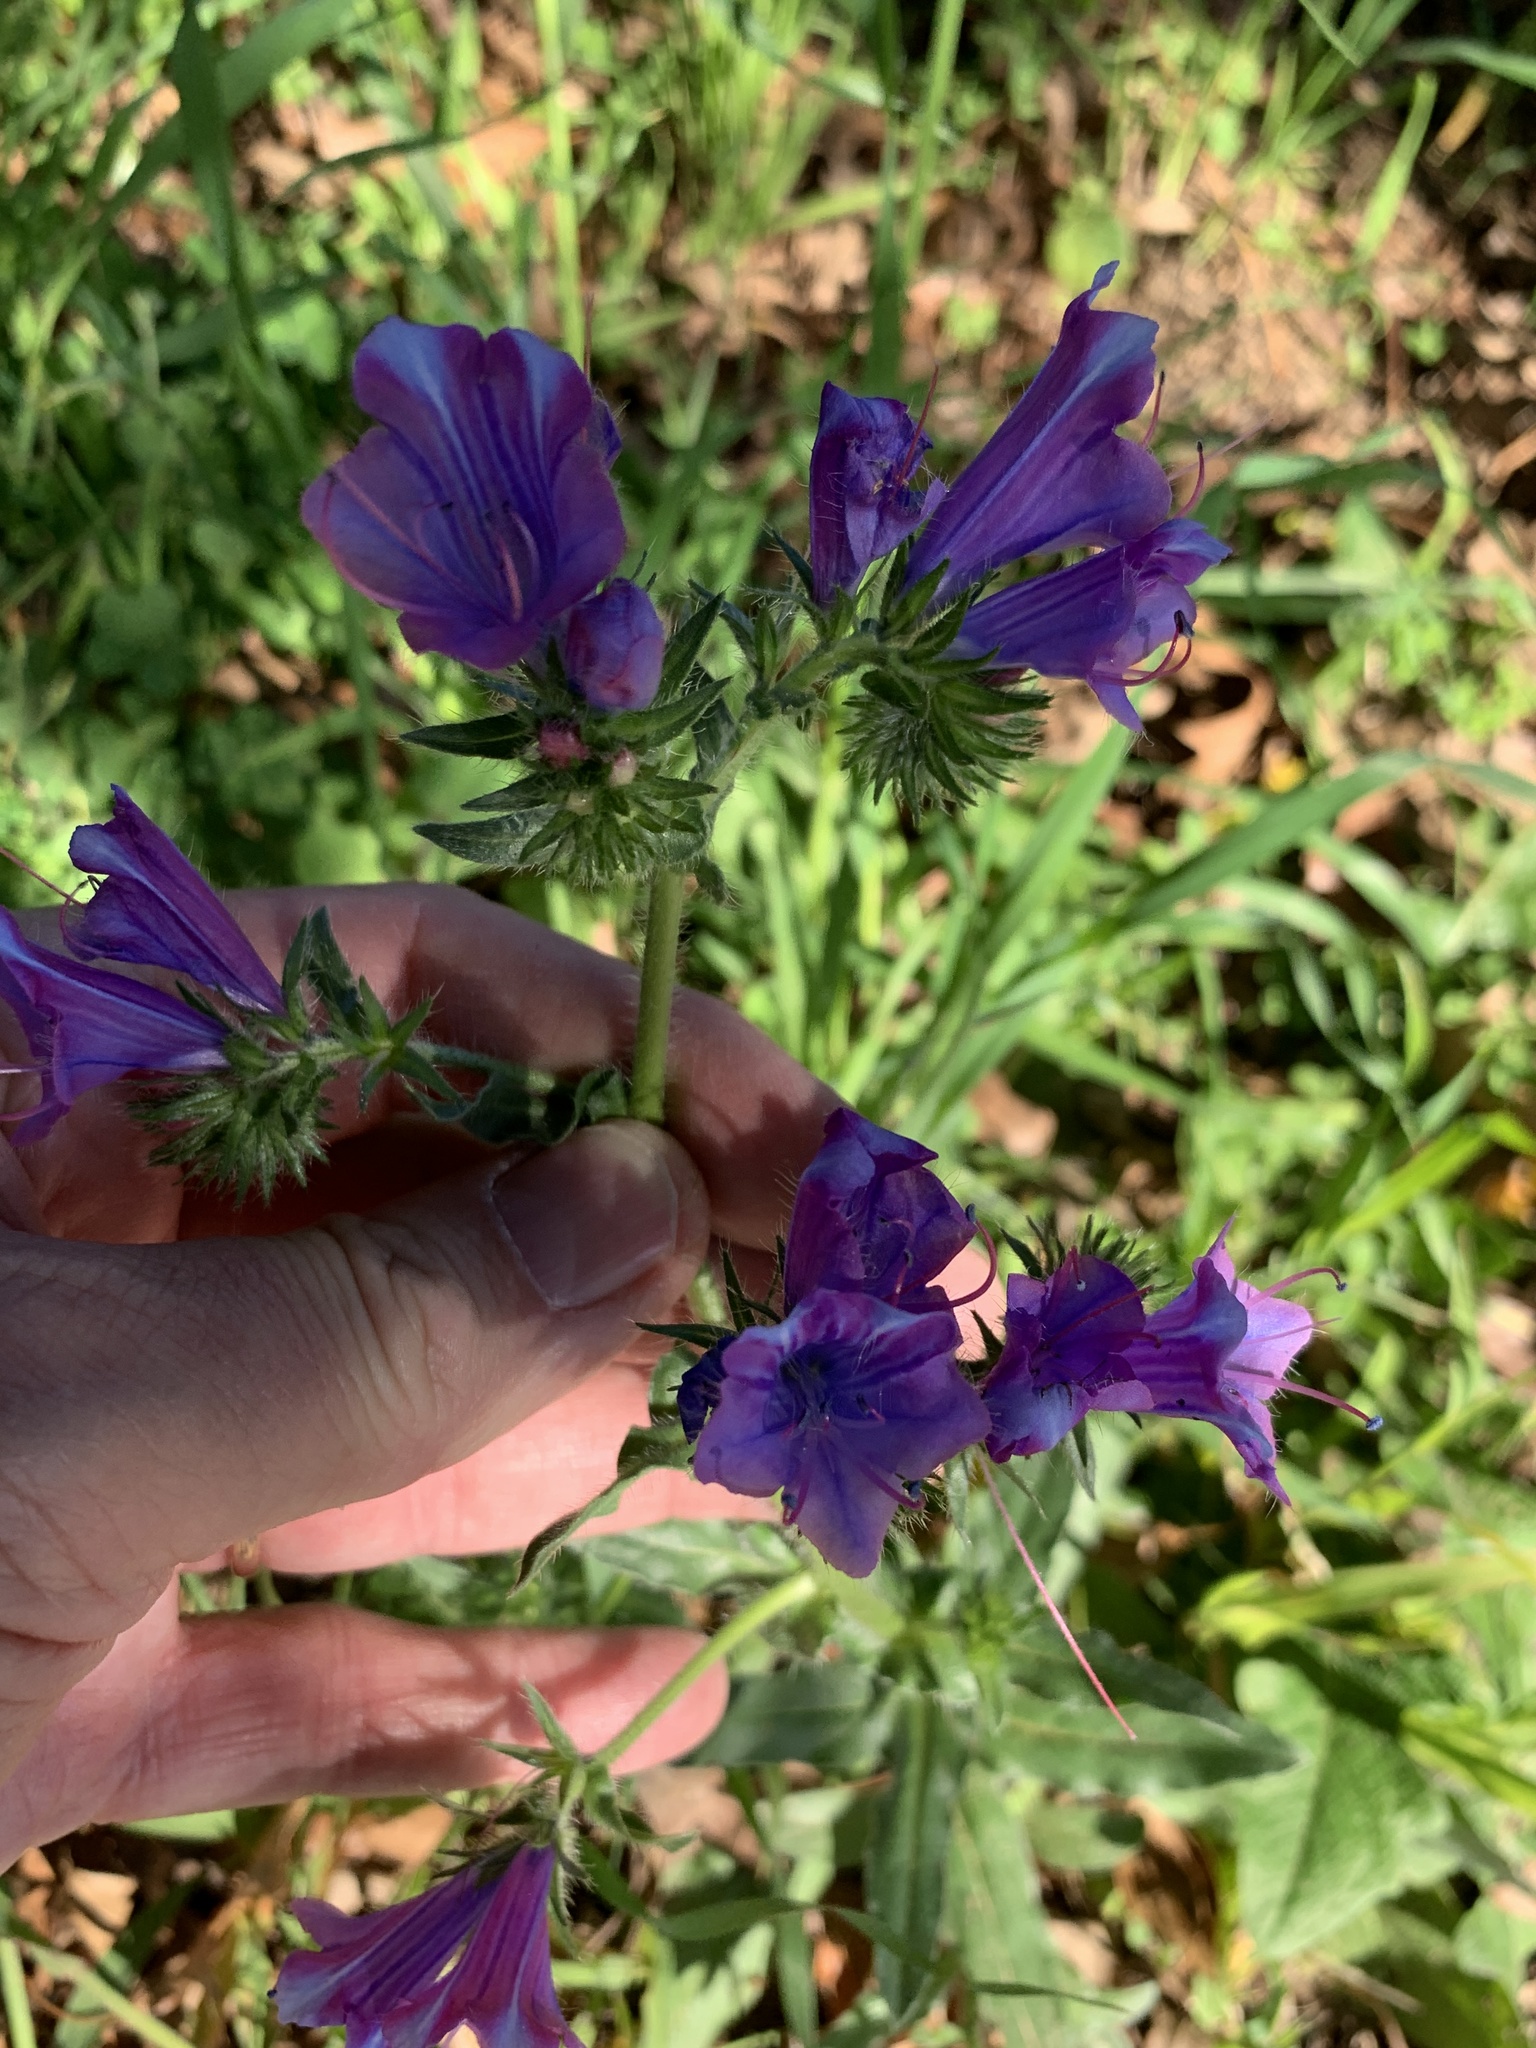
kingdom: Plantae
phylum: Tracheophyta
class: Magnoliopsida
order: Boraginales
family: Boraginaceae
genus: Echium
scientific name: Echium plantagineum
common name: Purple viper's-bugloss
